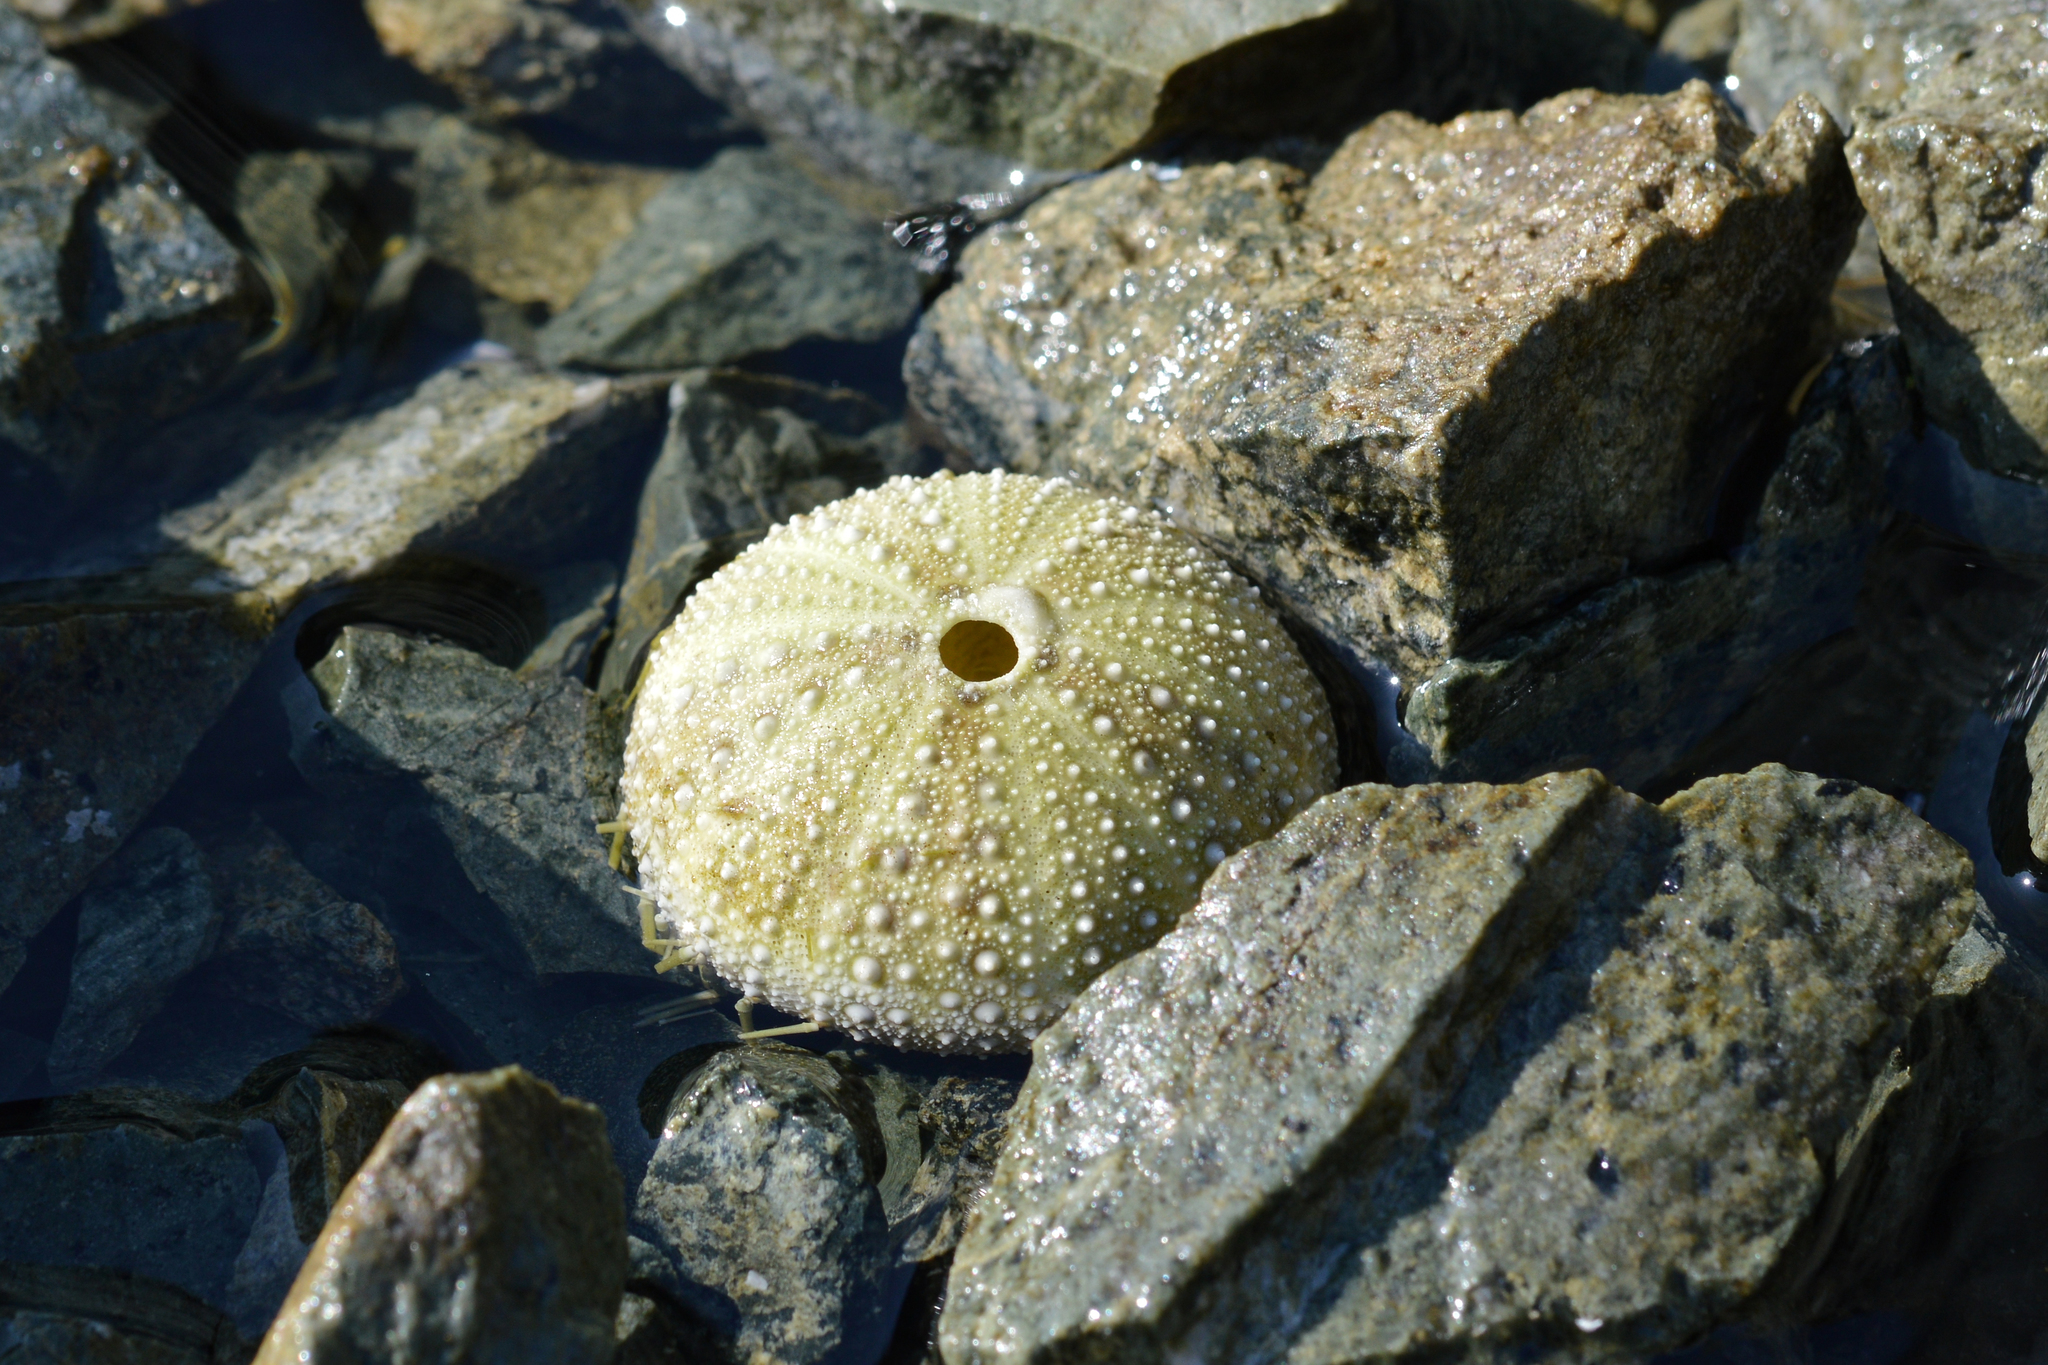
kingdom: Animalia
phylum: Echinodermata
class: Echinoidea
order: Camarodonta
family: Strongylocentrotidae
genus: Strongylocentrotus
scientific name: Strongylocentrotus droebachiensis
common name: Northern sea urchin
